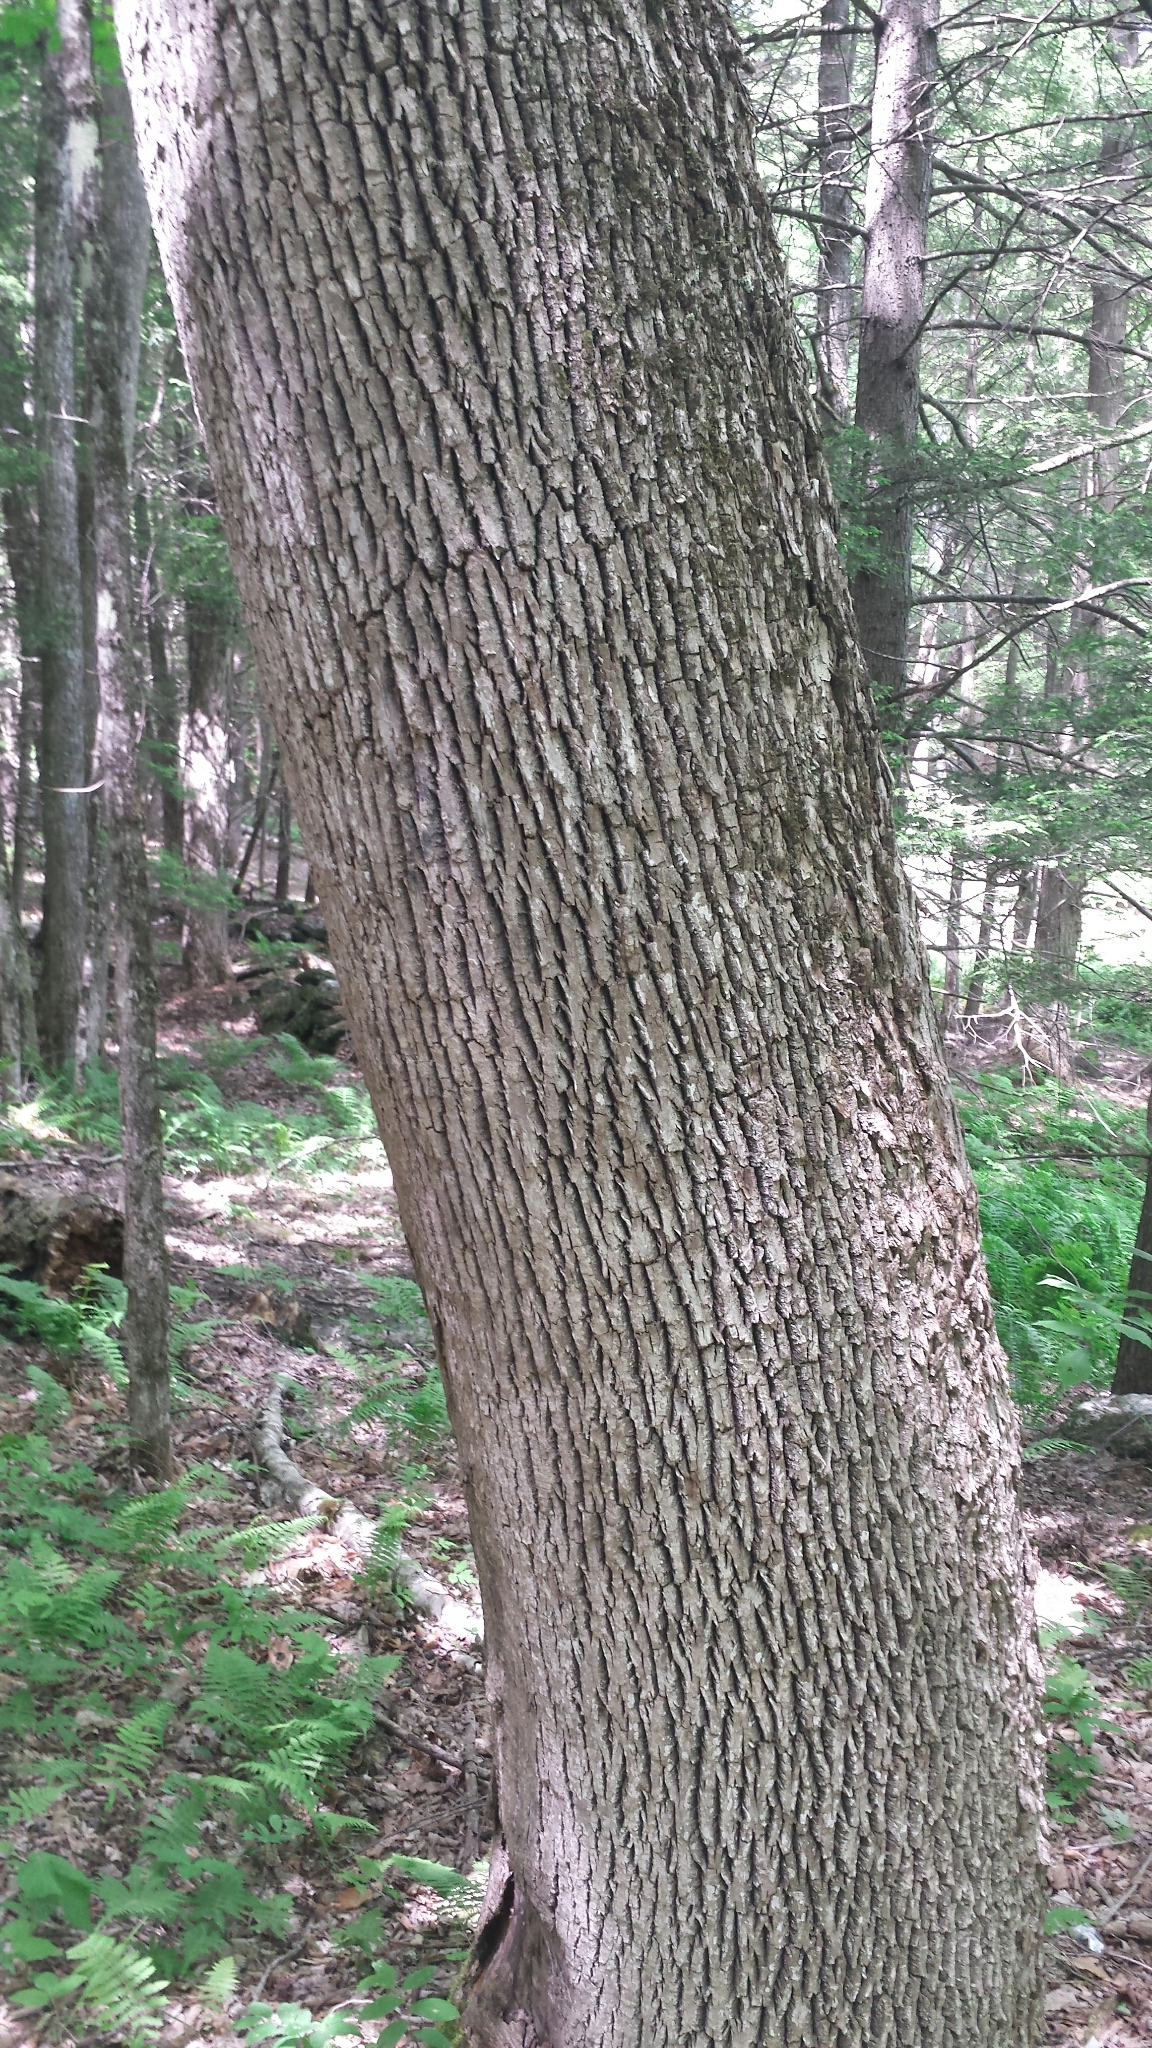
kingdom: Plantae
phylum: Tracheophyta
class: Magnoliopsida
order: Lamiales
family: Oleaceae
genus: Fraxinus
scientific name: Fraxinus americana
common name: White ash
